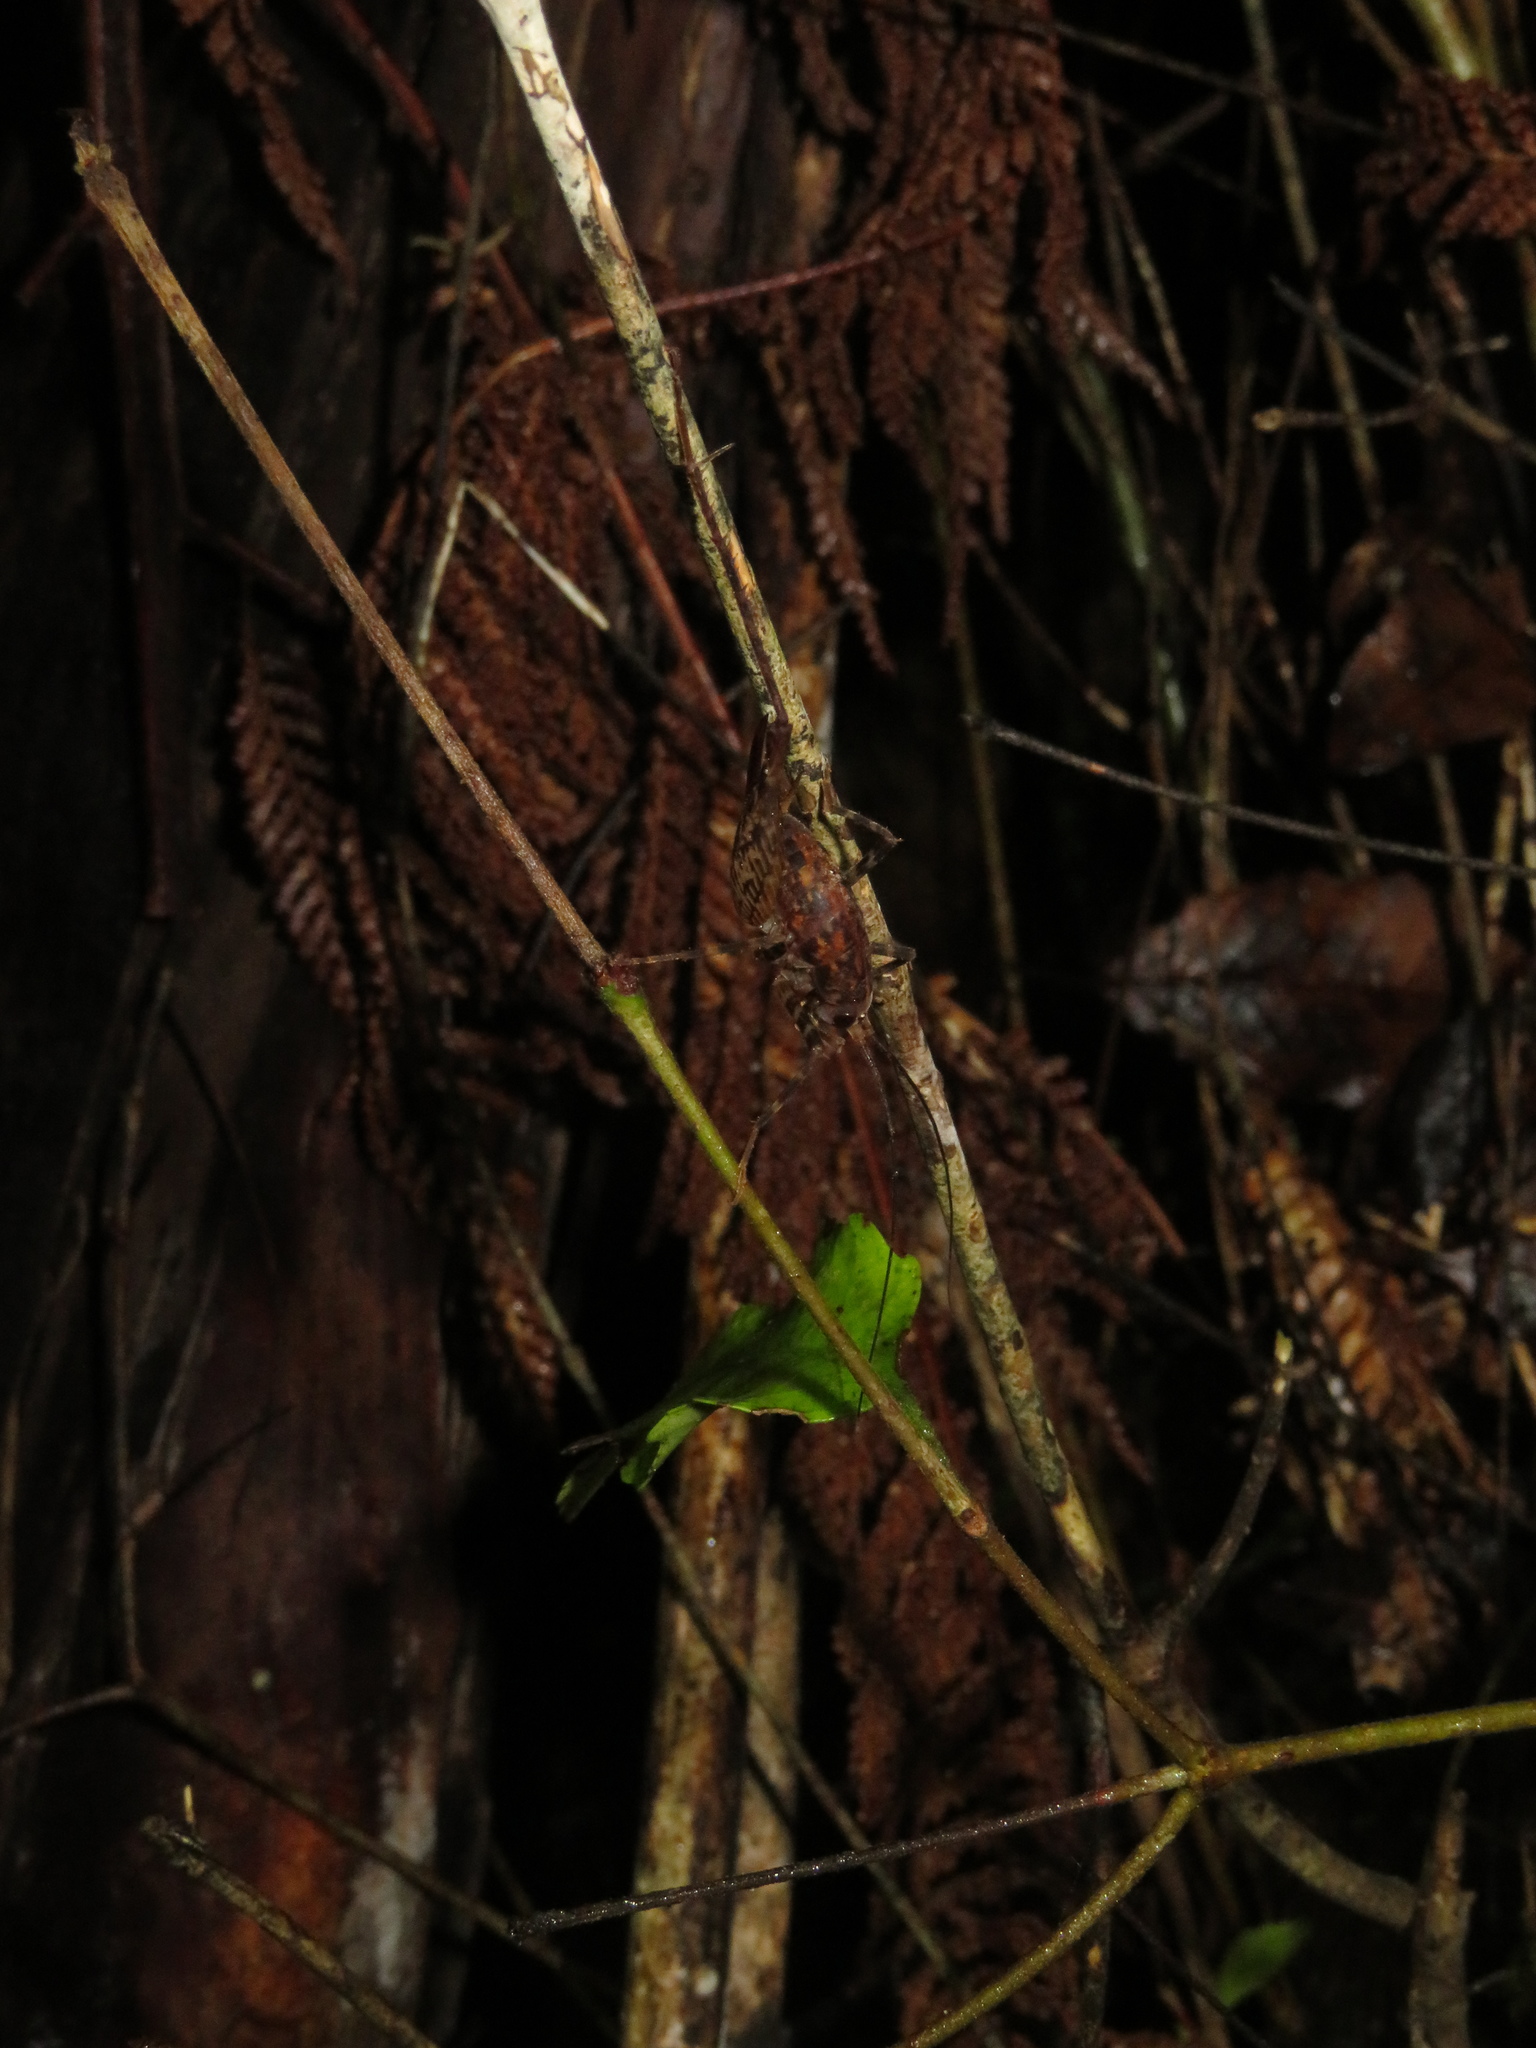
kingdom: Animalia
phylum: Arthropoda
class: Insecta
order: Orthoptera
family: Rhaphidophoridae
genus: Pleioplectron
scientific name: Pleioplectron gubernator
